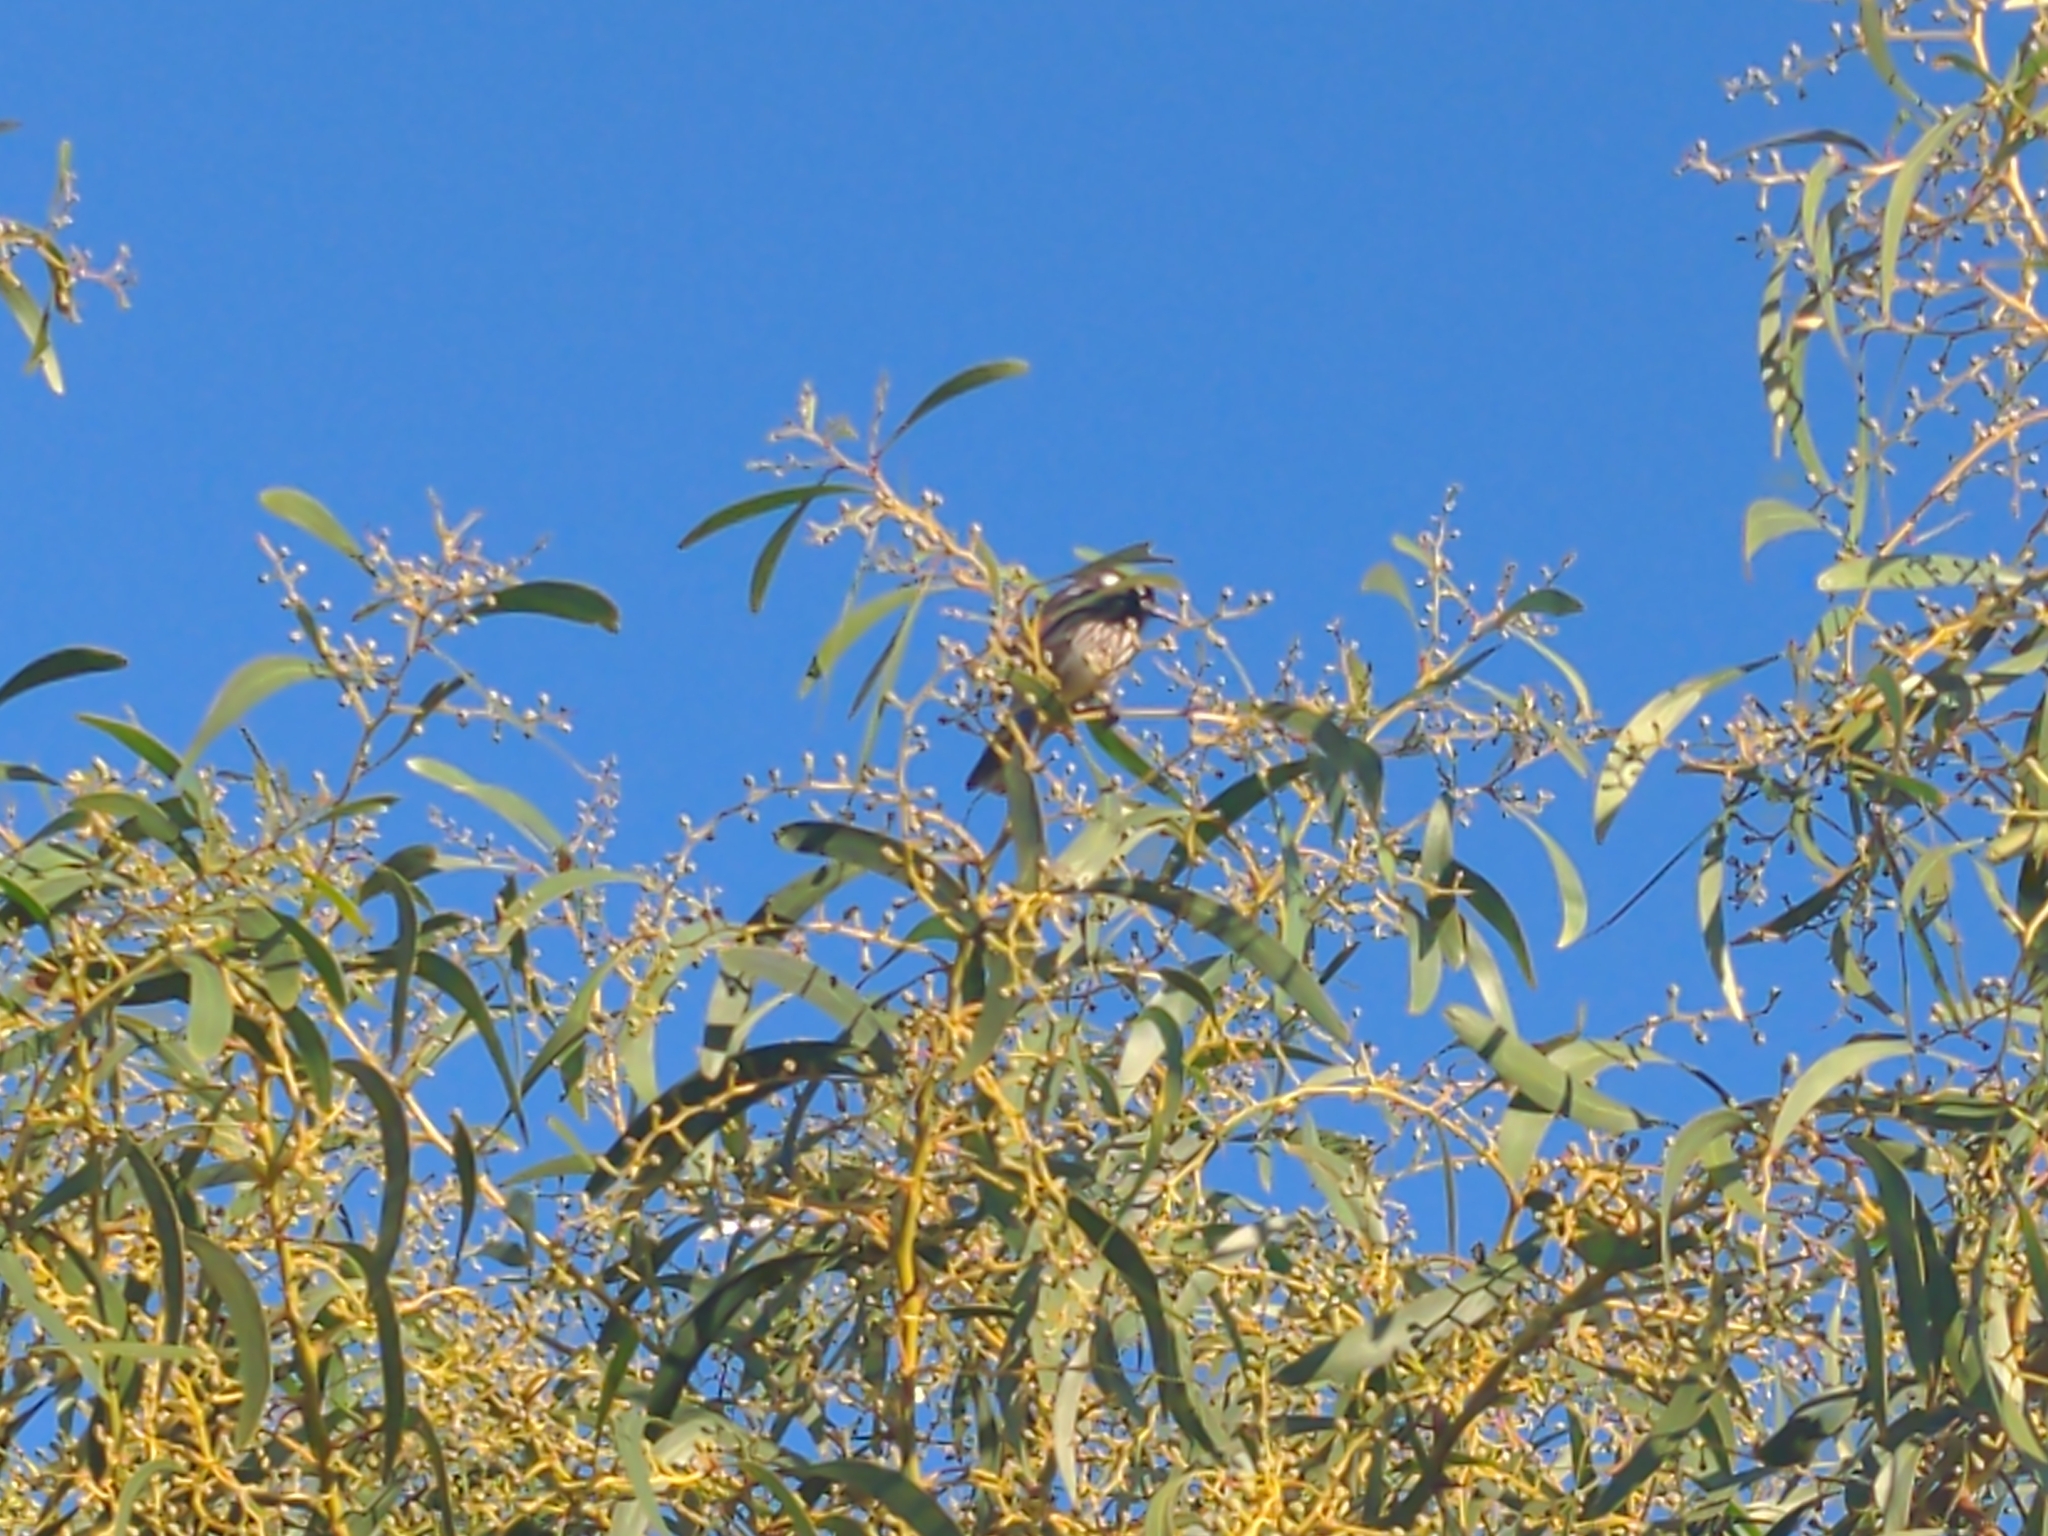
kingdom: Animalia
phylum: Chordata
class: Aves
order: Passeriformes
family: Meliphagidae
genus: Phylidonyris
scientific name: Phylidonyris novaehollandiae
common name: New holland honeyeater
